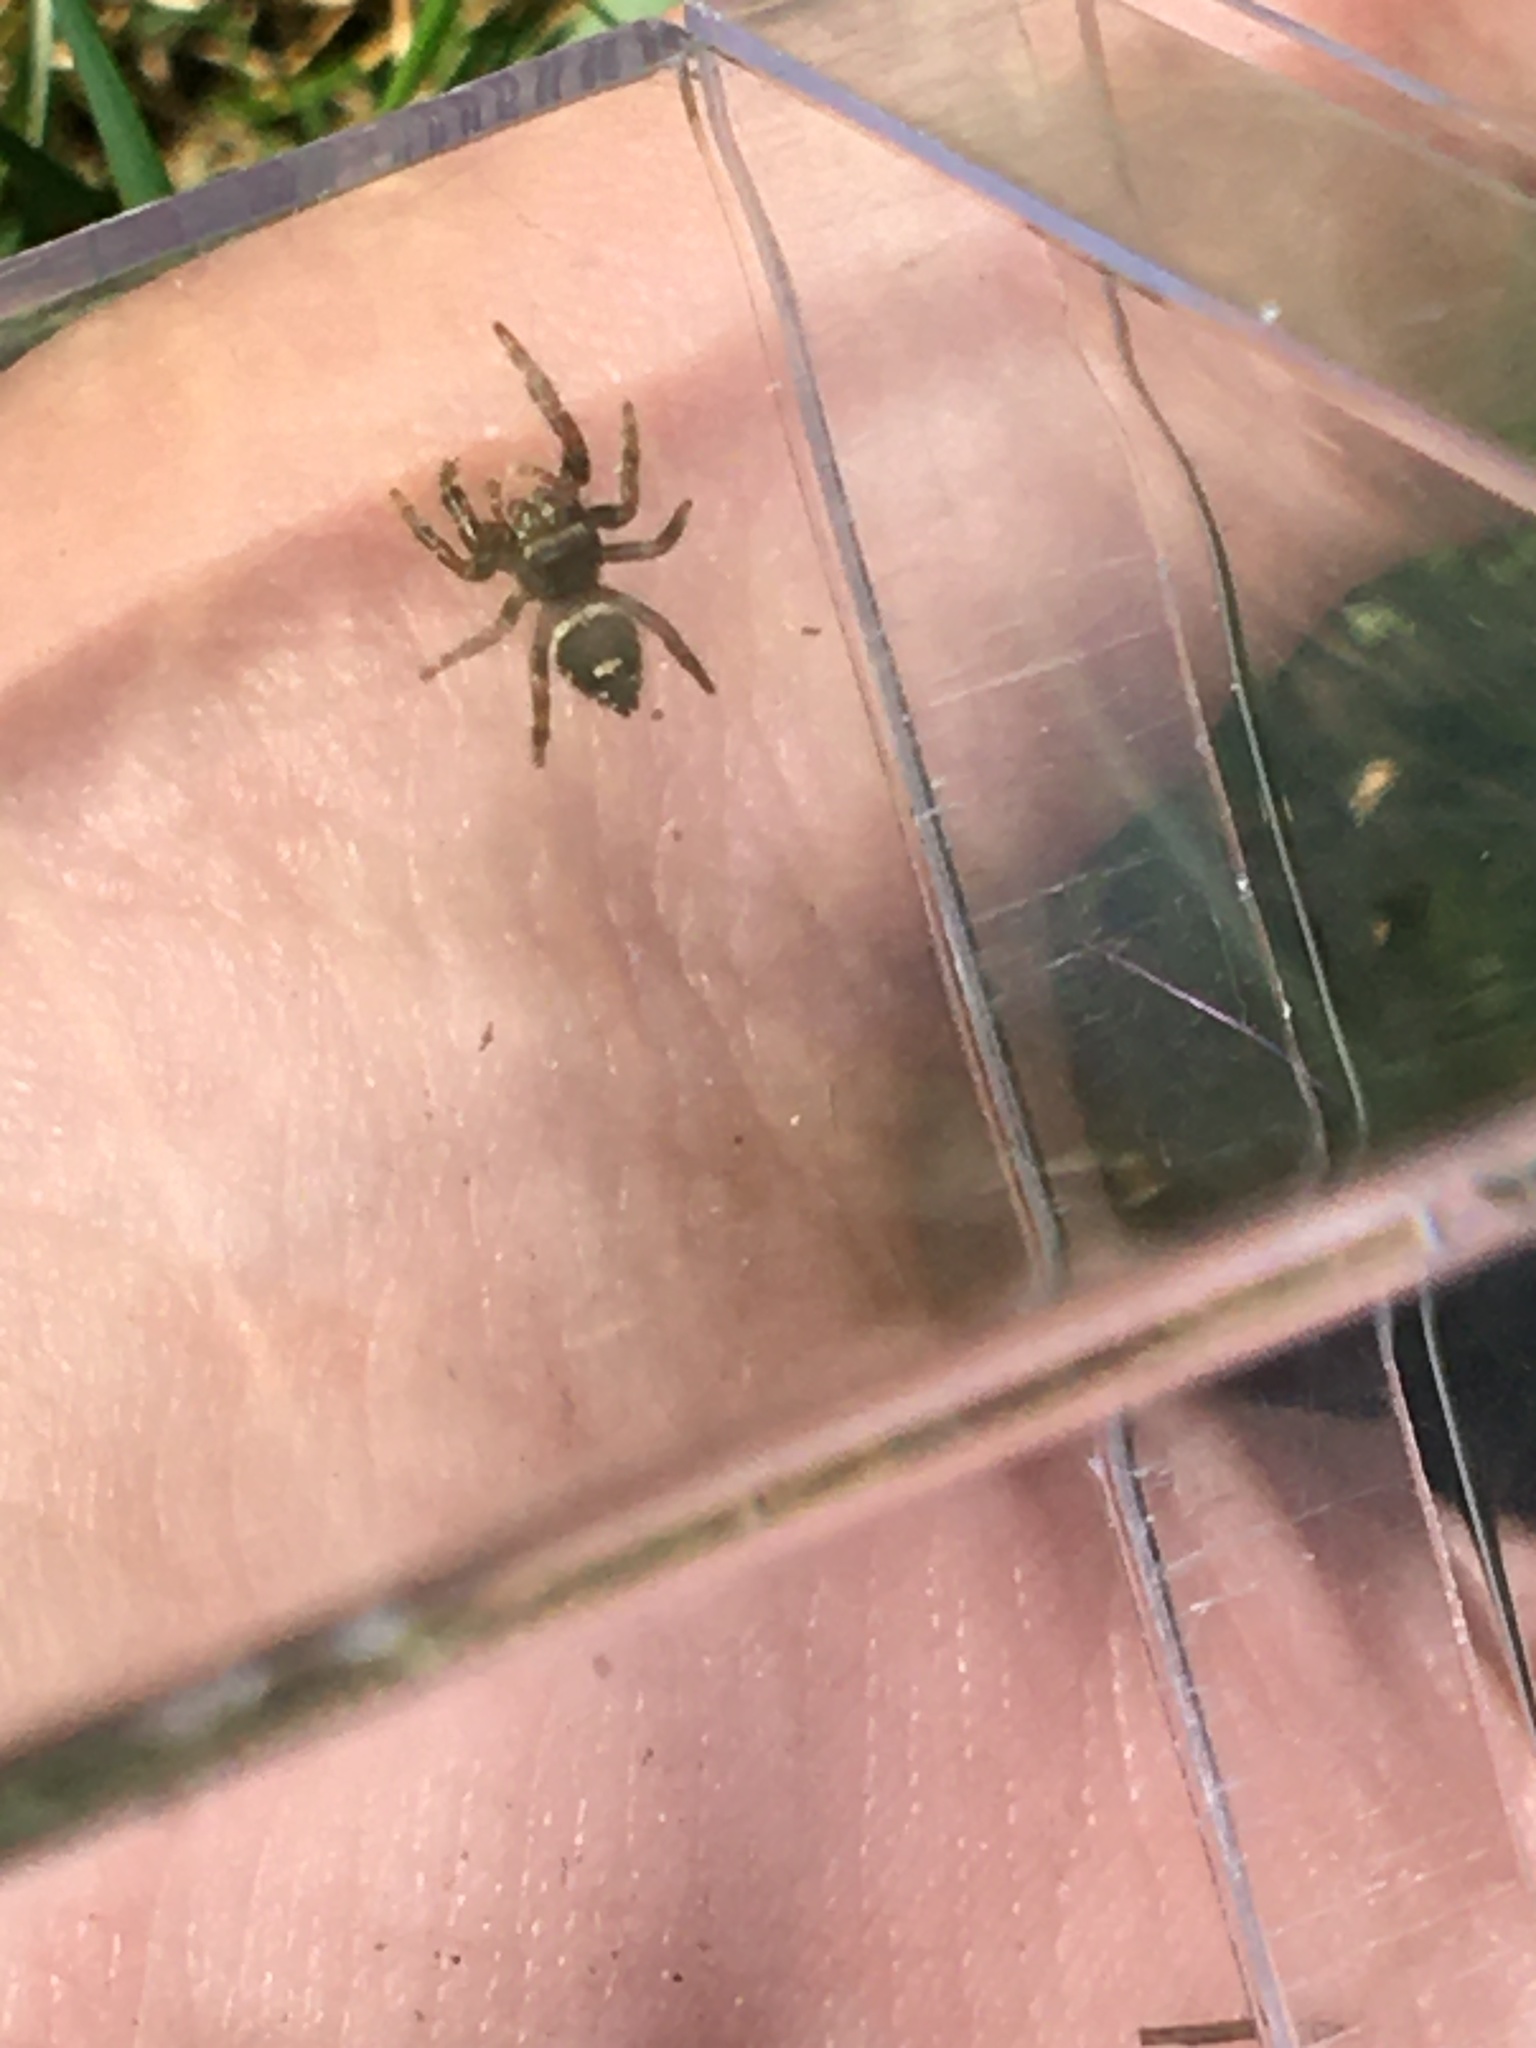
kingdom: Animalia
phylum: Arthropoda
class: Arachnida
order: Araneae
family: Salticidae
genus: Phidippus
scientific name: Phidippus audax
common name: Bold jumper
